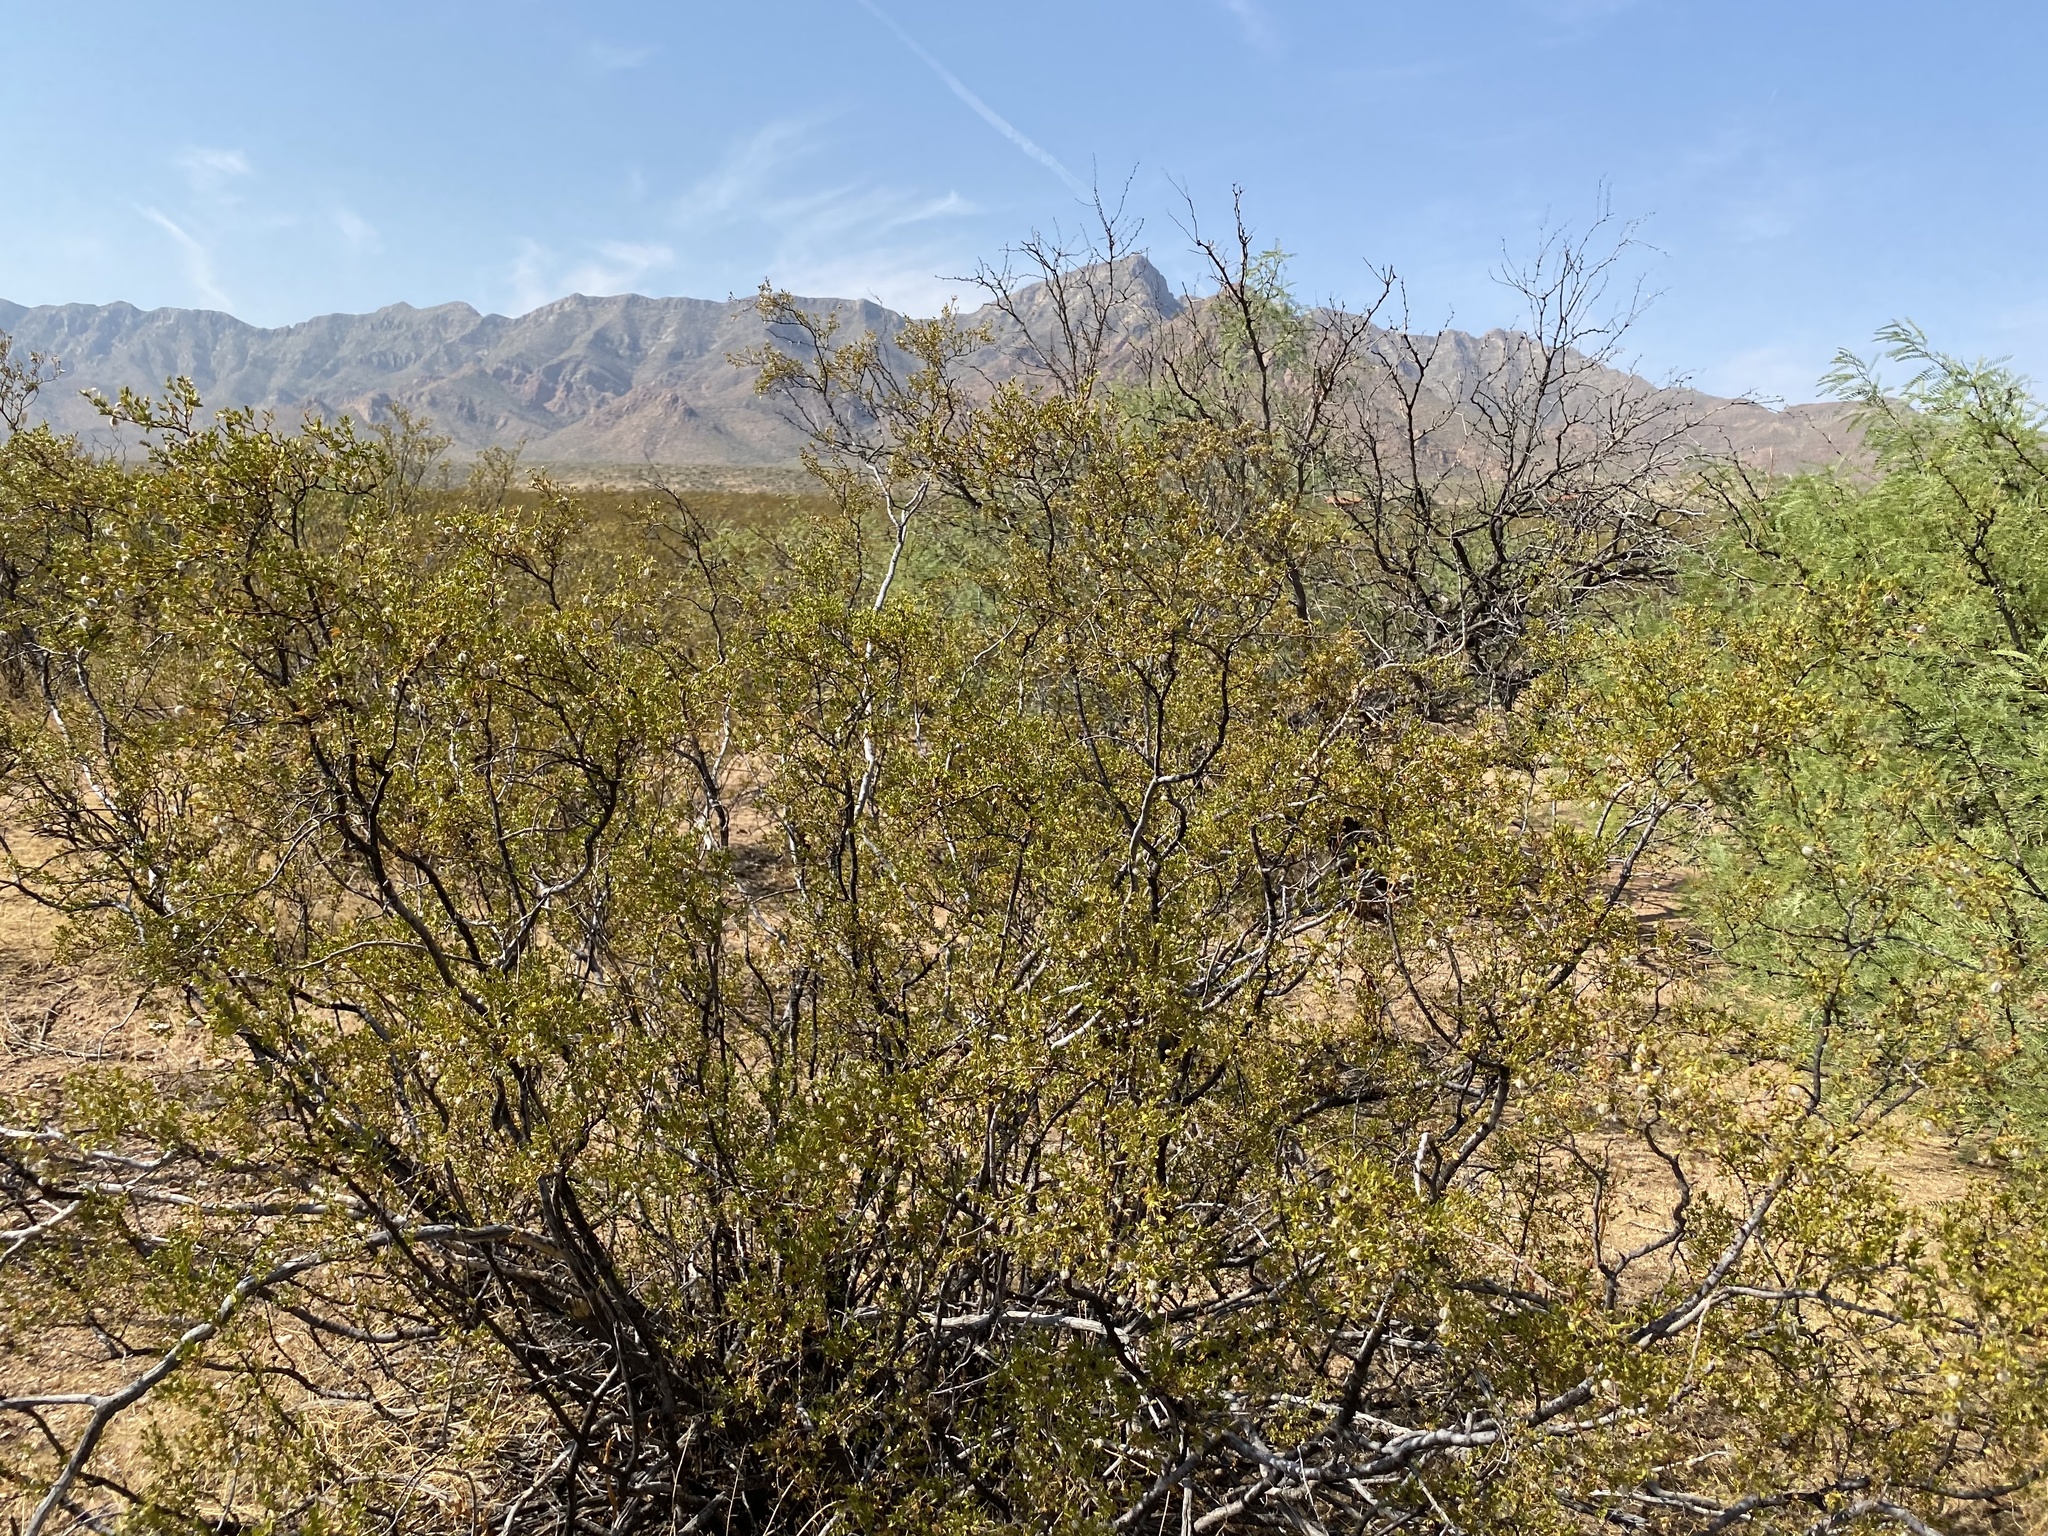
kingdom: Plantae
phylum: Tracheophyta
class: Magnoliopsida
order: Zygophyllales
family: Zygophyllaceae
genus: Larrea
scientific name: Larrea tridentata
